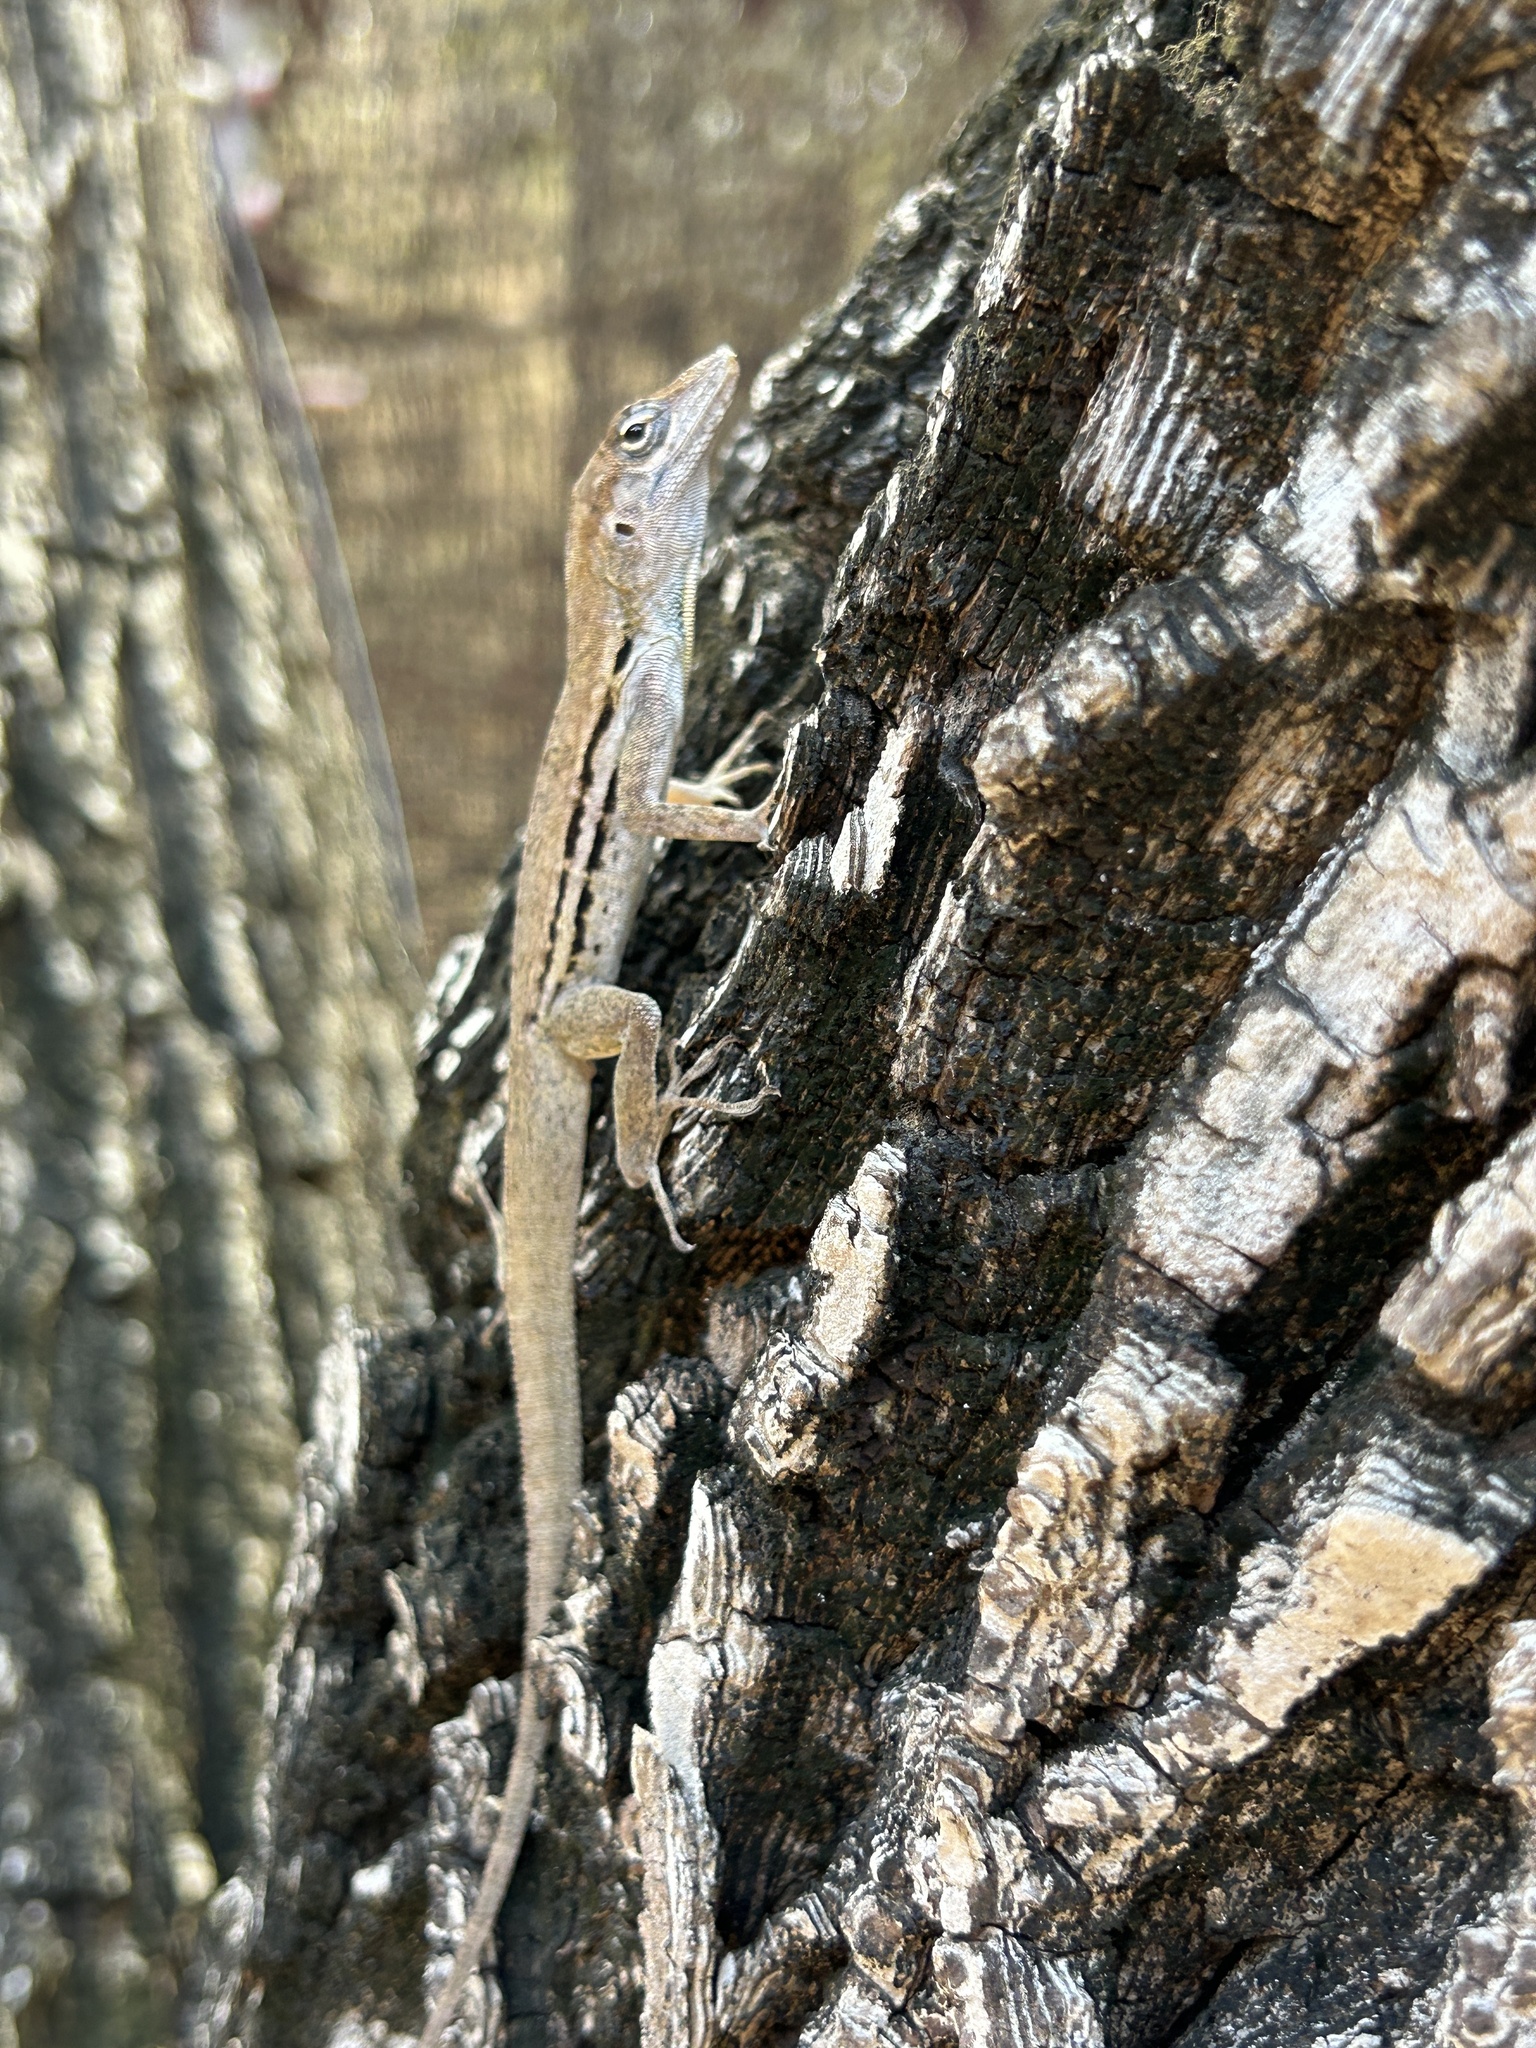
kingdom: Animalia
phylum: Chordata
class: Squamata
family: Dactyloidae
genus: Anolis
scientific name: Anolis lineatus
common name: Striped anole
